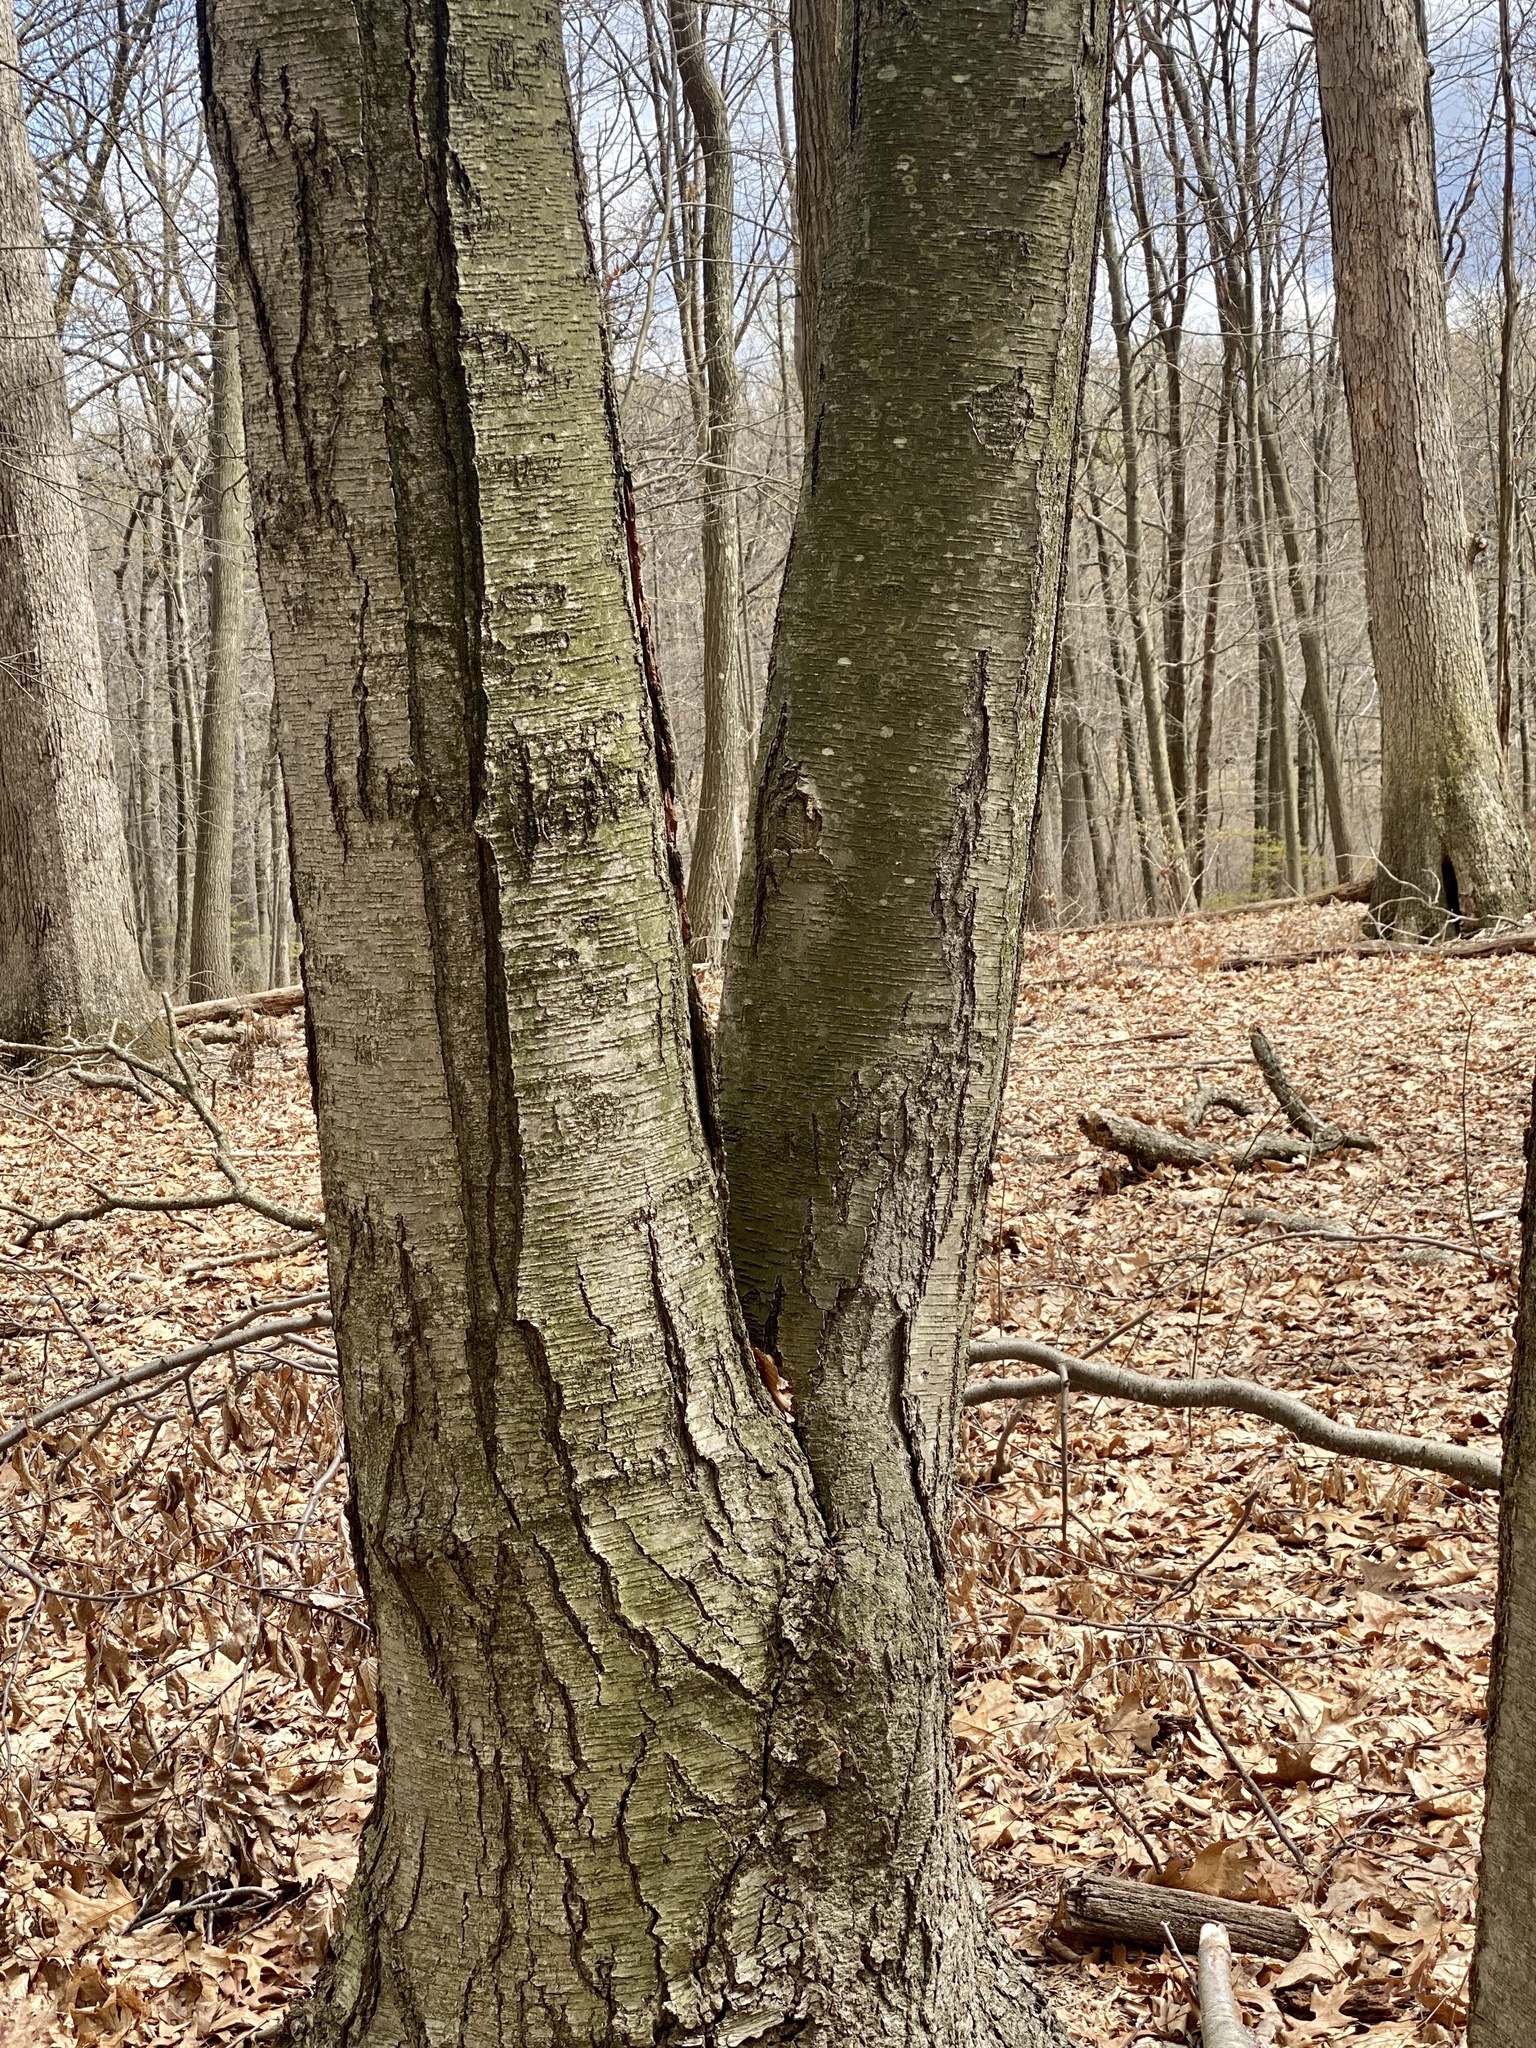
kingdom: Plantae
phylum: Tracheophyta
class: Magnoliopsida
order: Fagales
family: Betulaceae
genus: Betula
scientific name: Betula lenta
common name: Black birch
